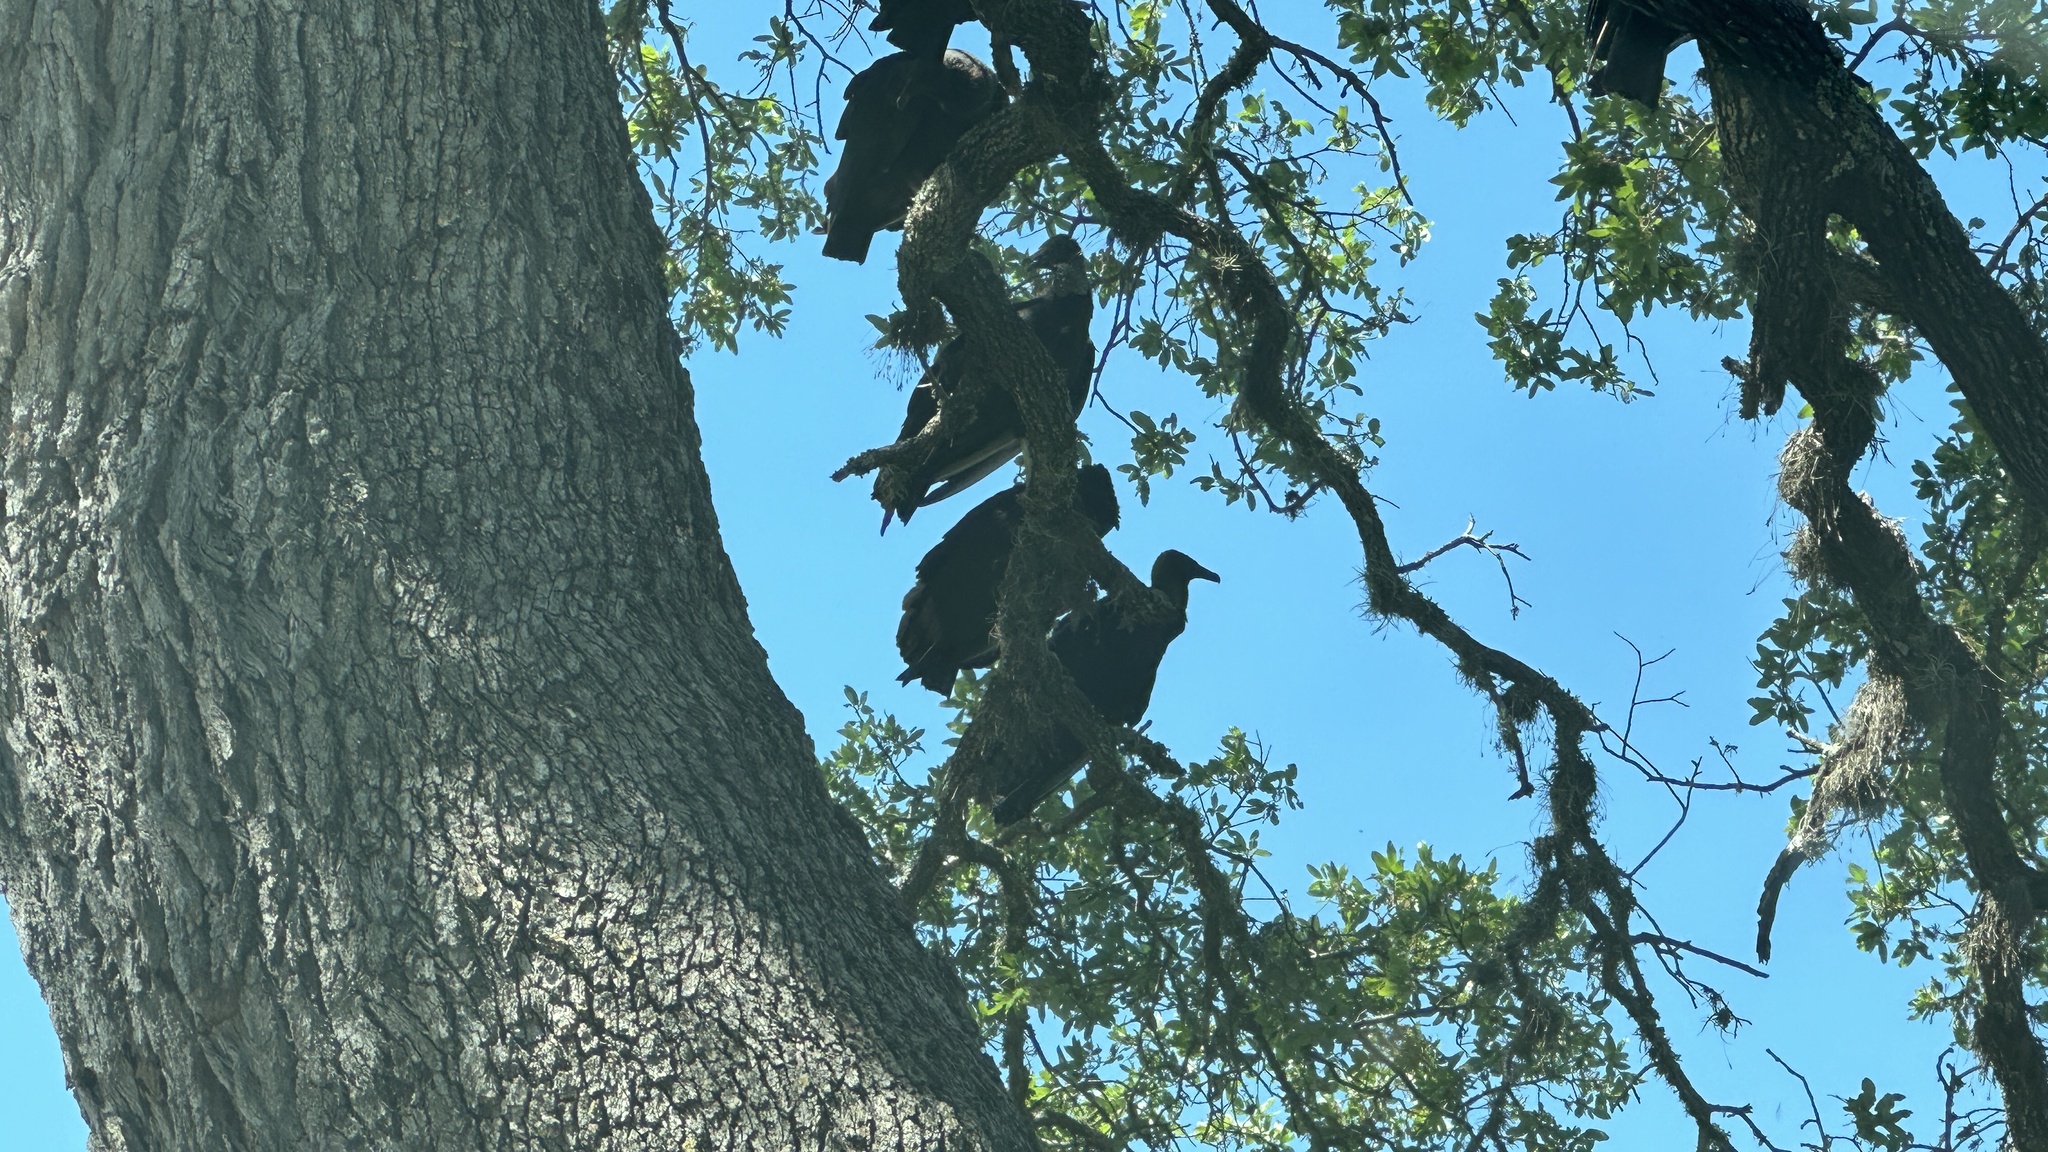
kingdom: Animalia
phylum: Chordata
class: Aves
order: Accipitriformes
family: Cathartidae
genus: Coragyps
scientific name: Coragyps atratus
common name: Black vulture
